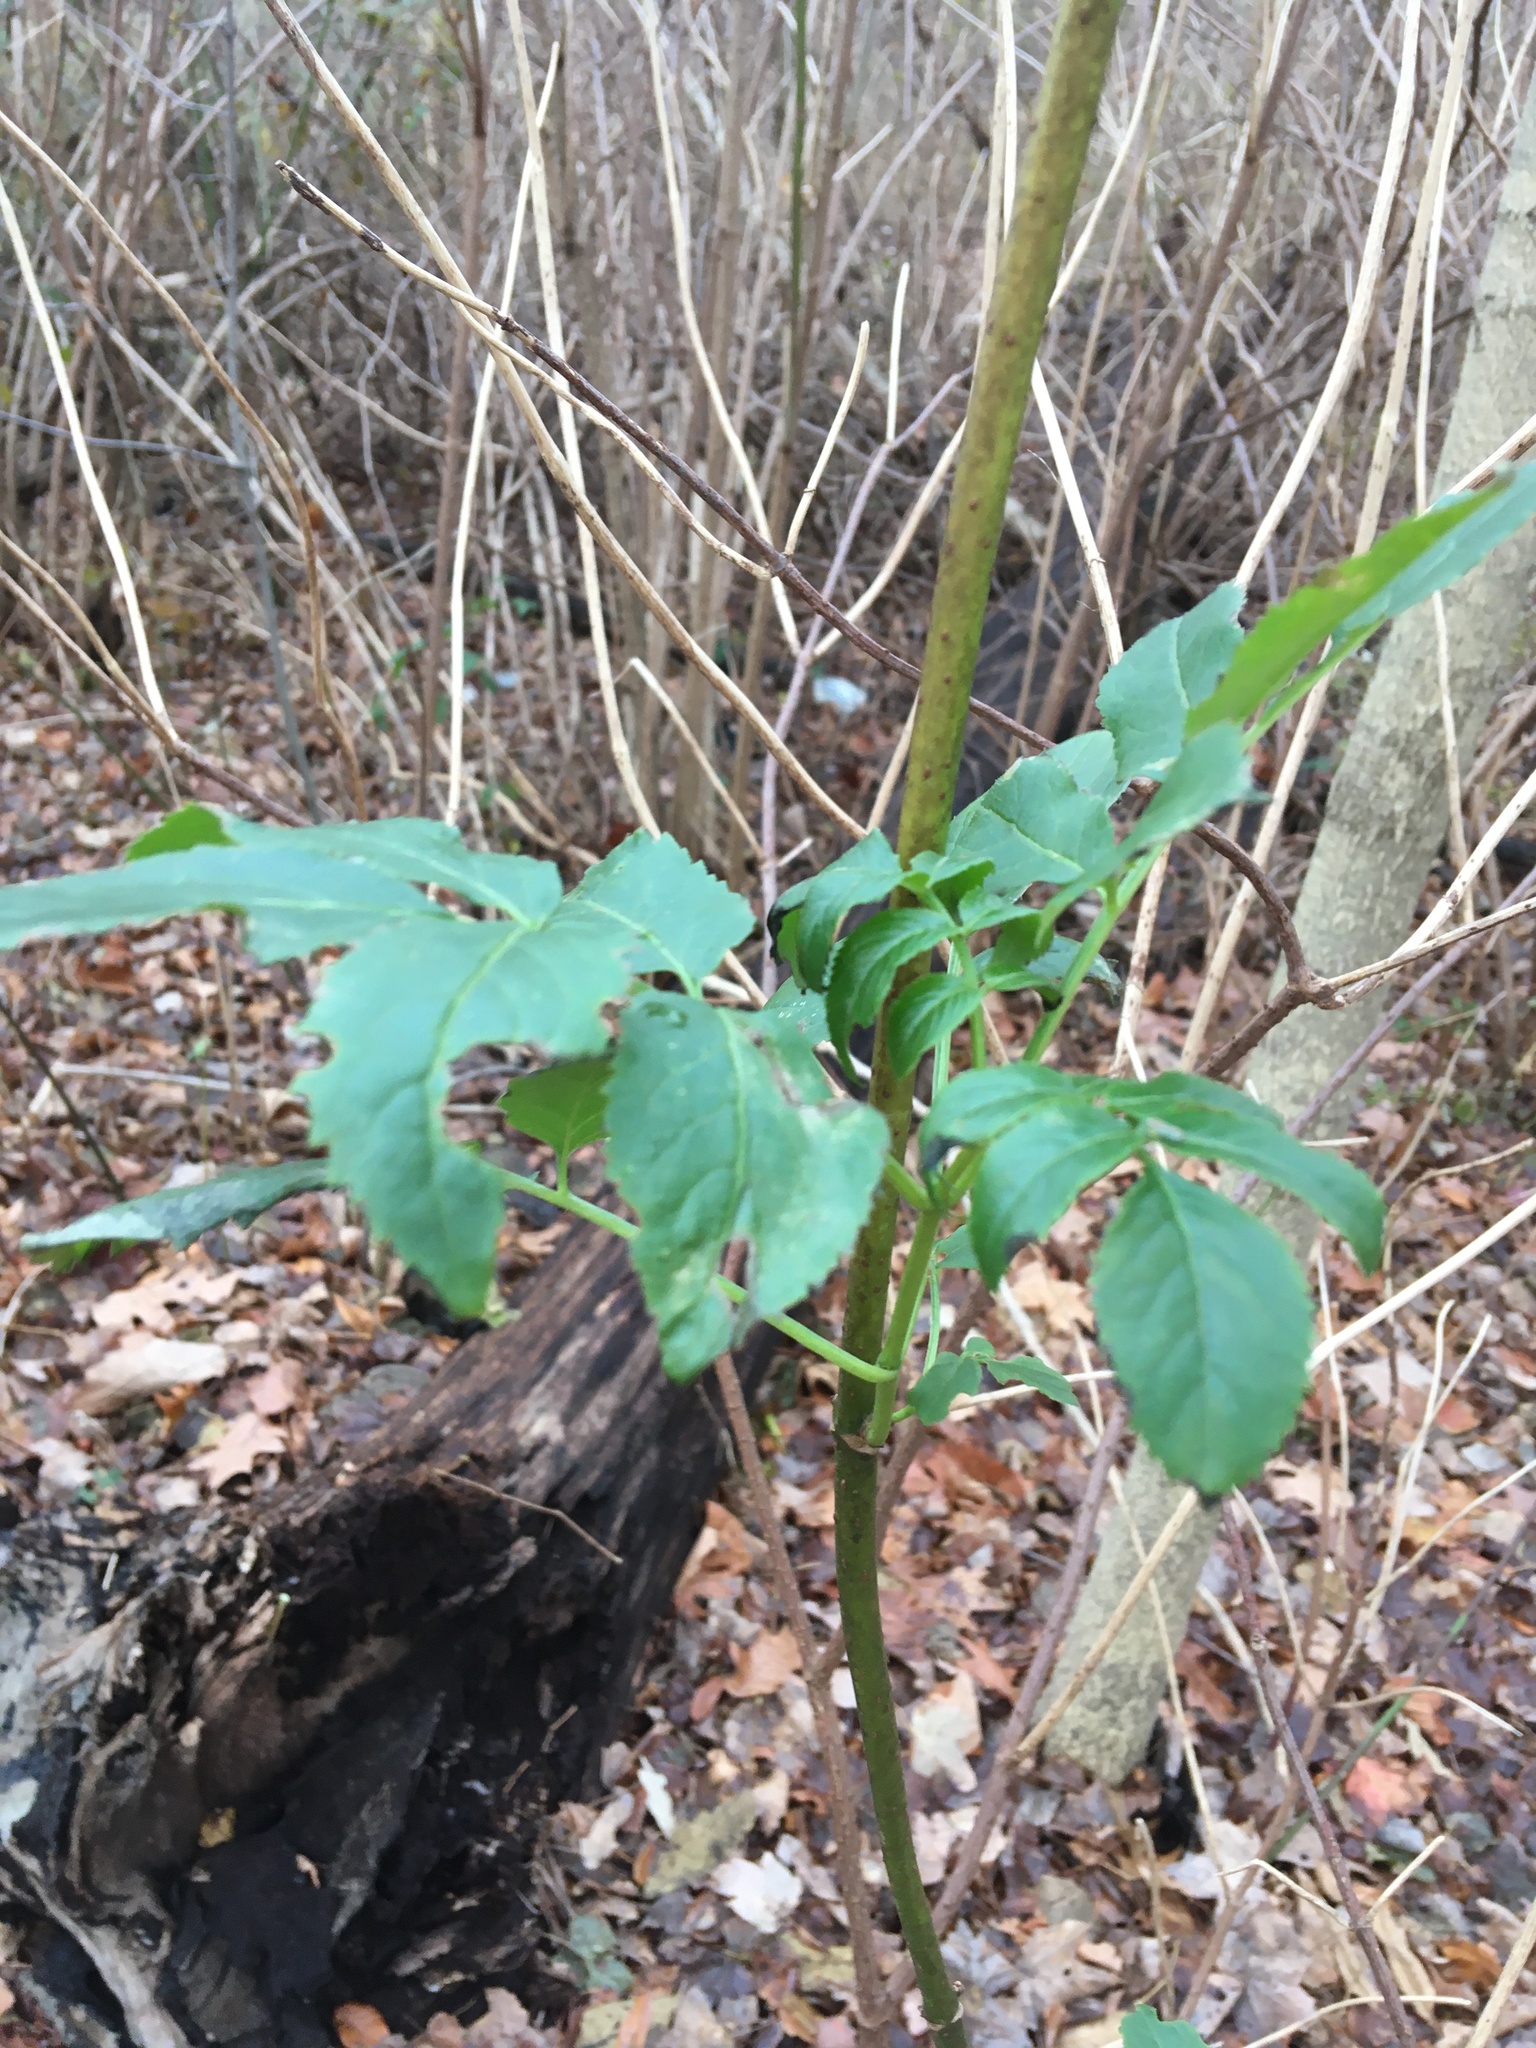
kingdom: Plantae
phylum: Tracheophyta
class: Magnoliopsida
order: Dipsacales
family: Viburnaceae
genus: Sambucus
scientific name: Sambucus canadensis
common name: American elder
